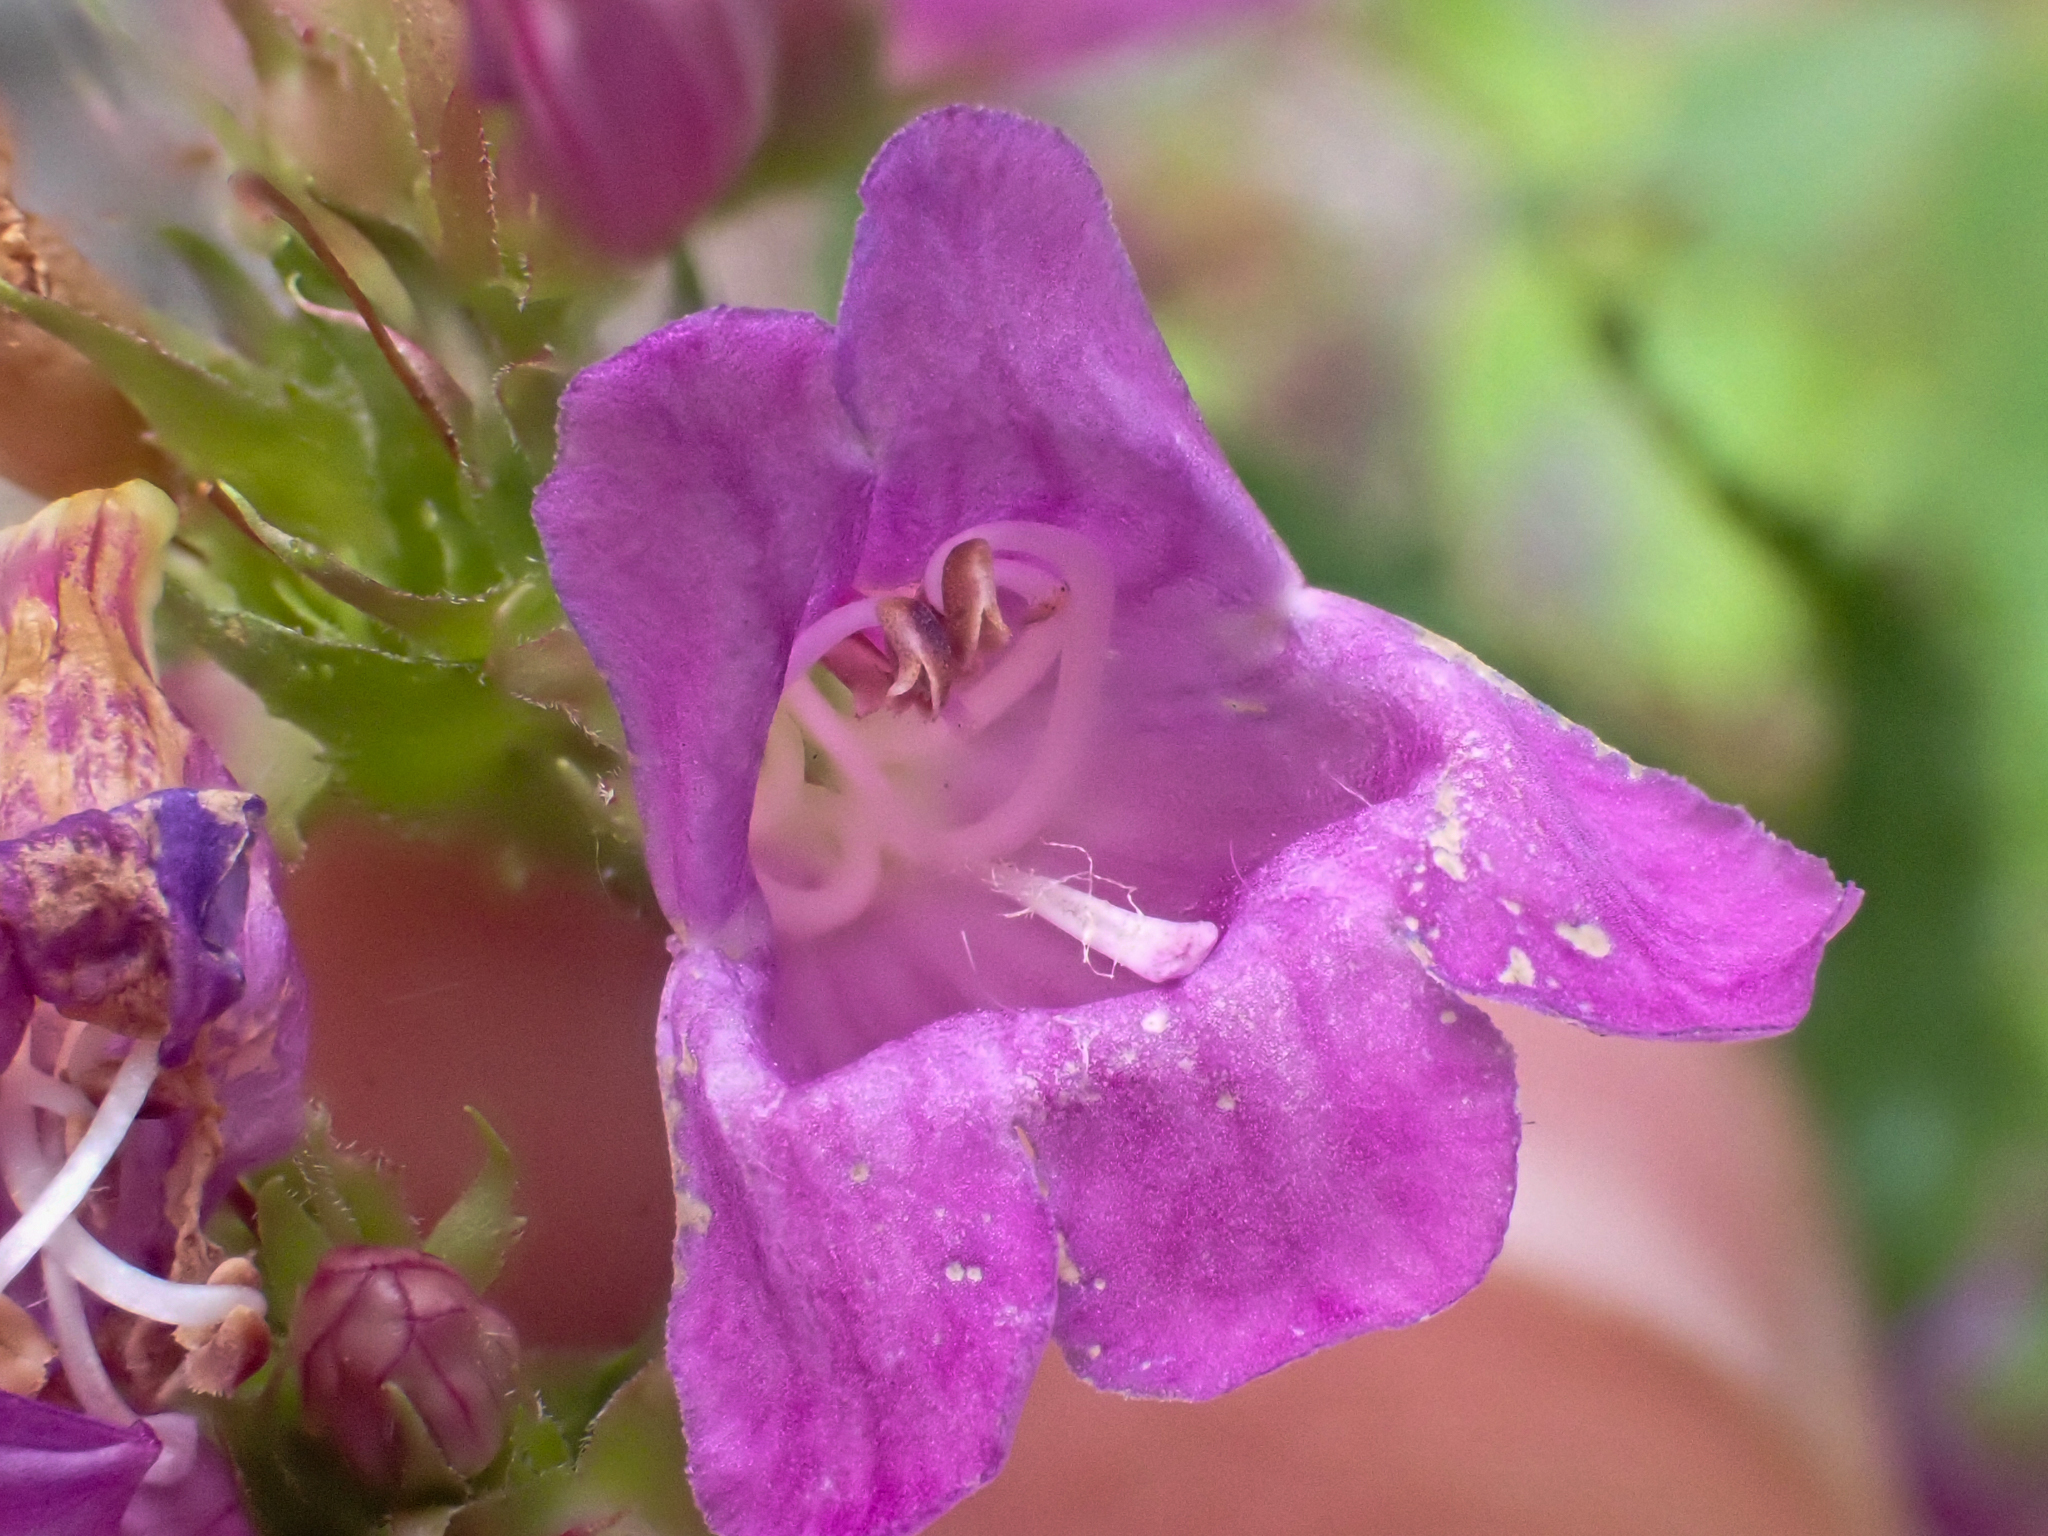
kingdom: Plantae
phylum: Tracheophyta
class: Magnoliopsida
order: Lamiales
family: Plantaginaceae
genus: Penstemon
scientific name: Penstemon serrulatus
